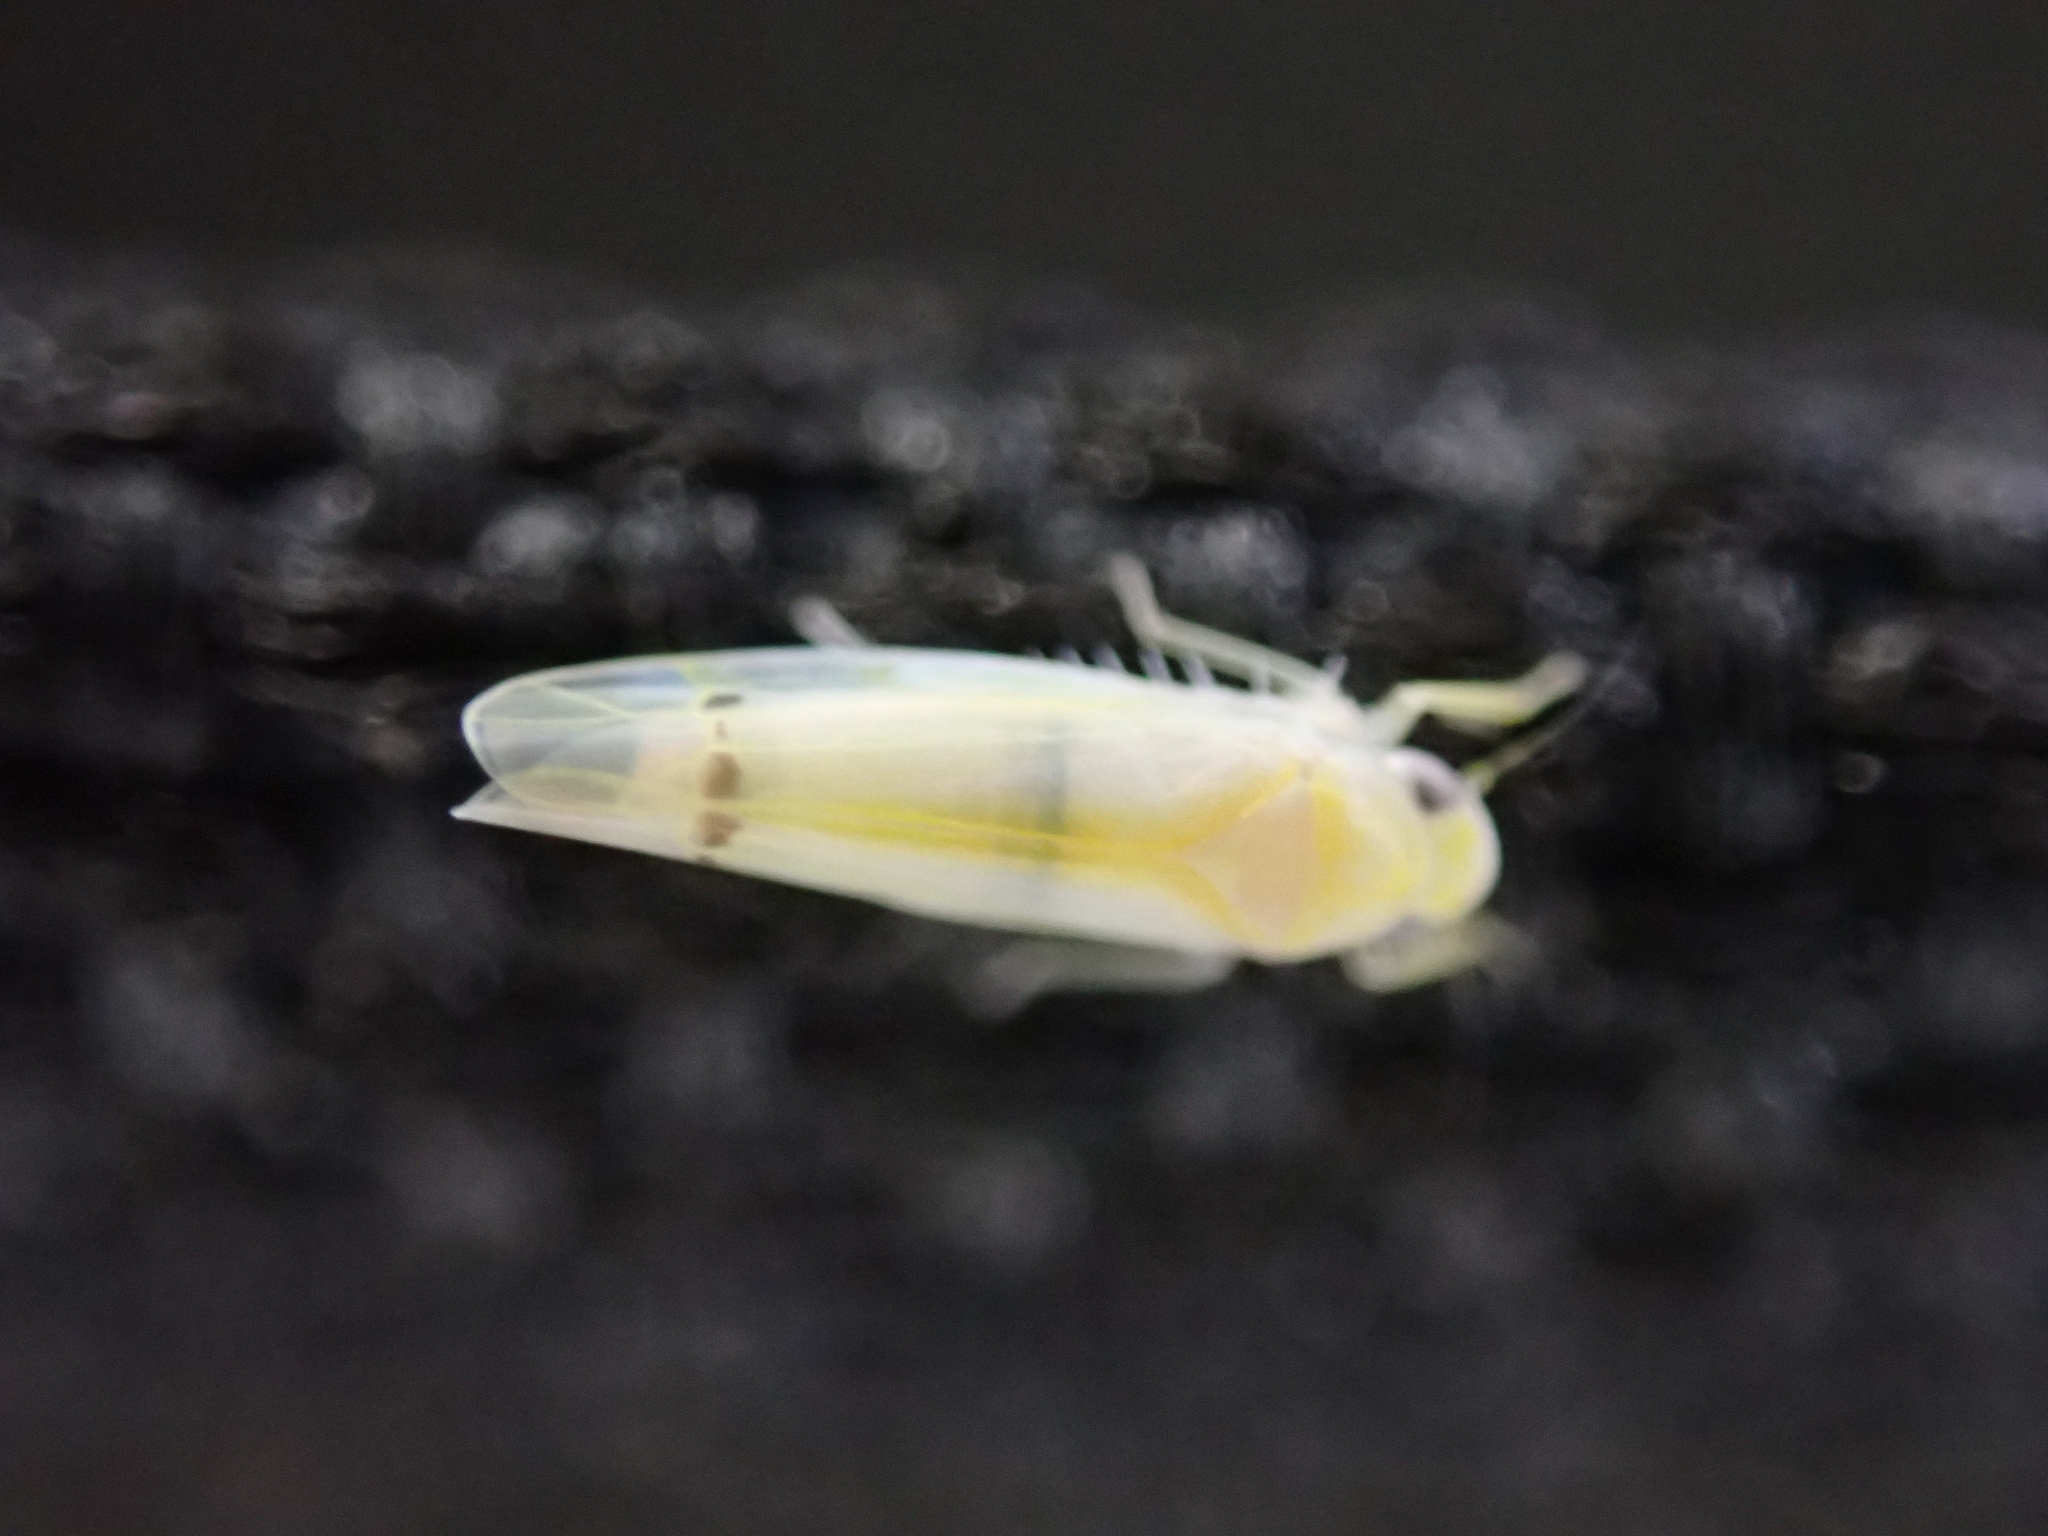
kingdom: Animalia
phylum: Arthropoda
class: Insecta
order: Hemiptera
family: Cicadellidae
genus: Ossiannilssonola
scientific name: Ossiannilssonola australis
